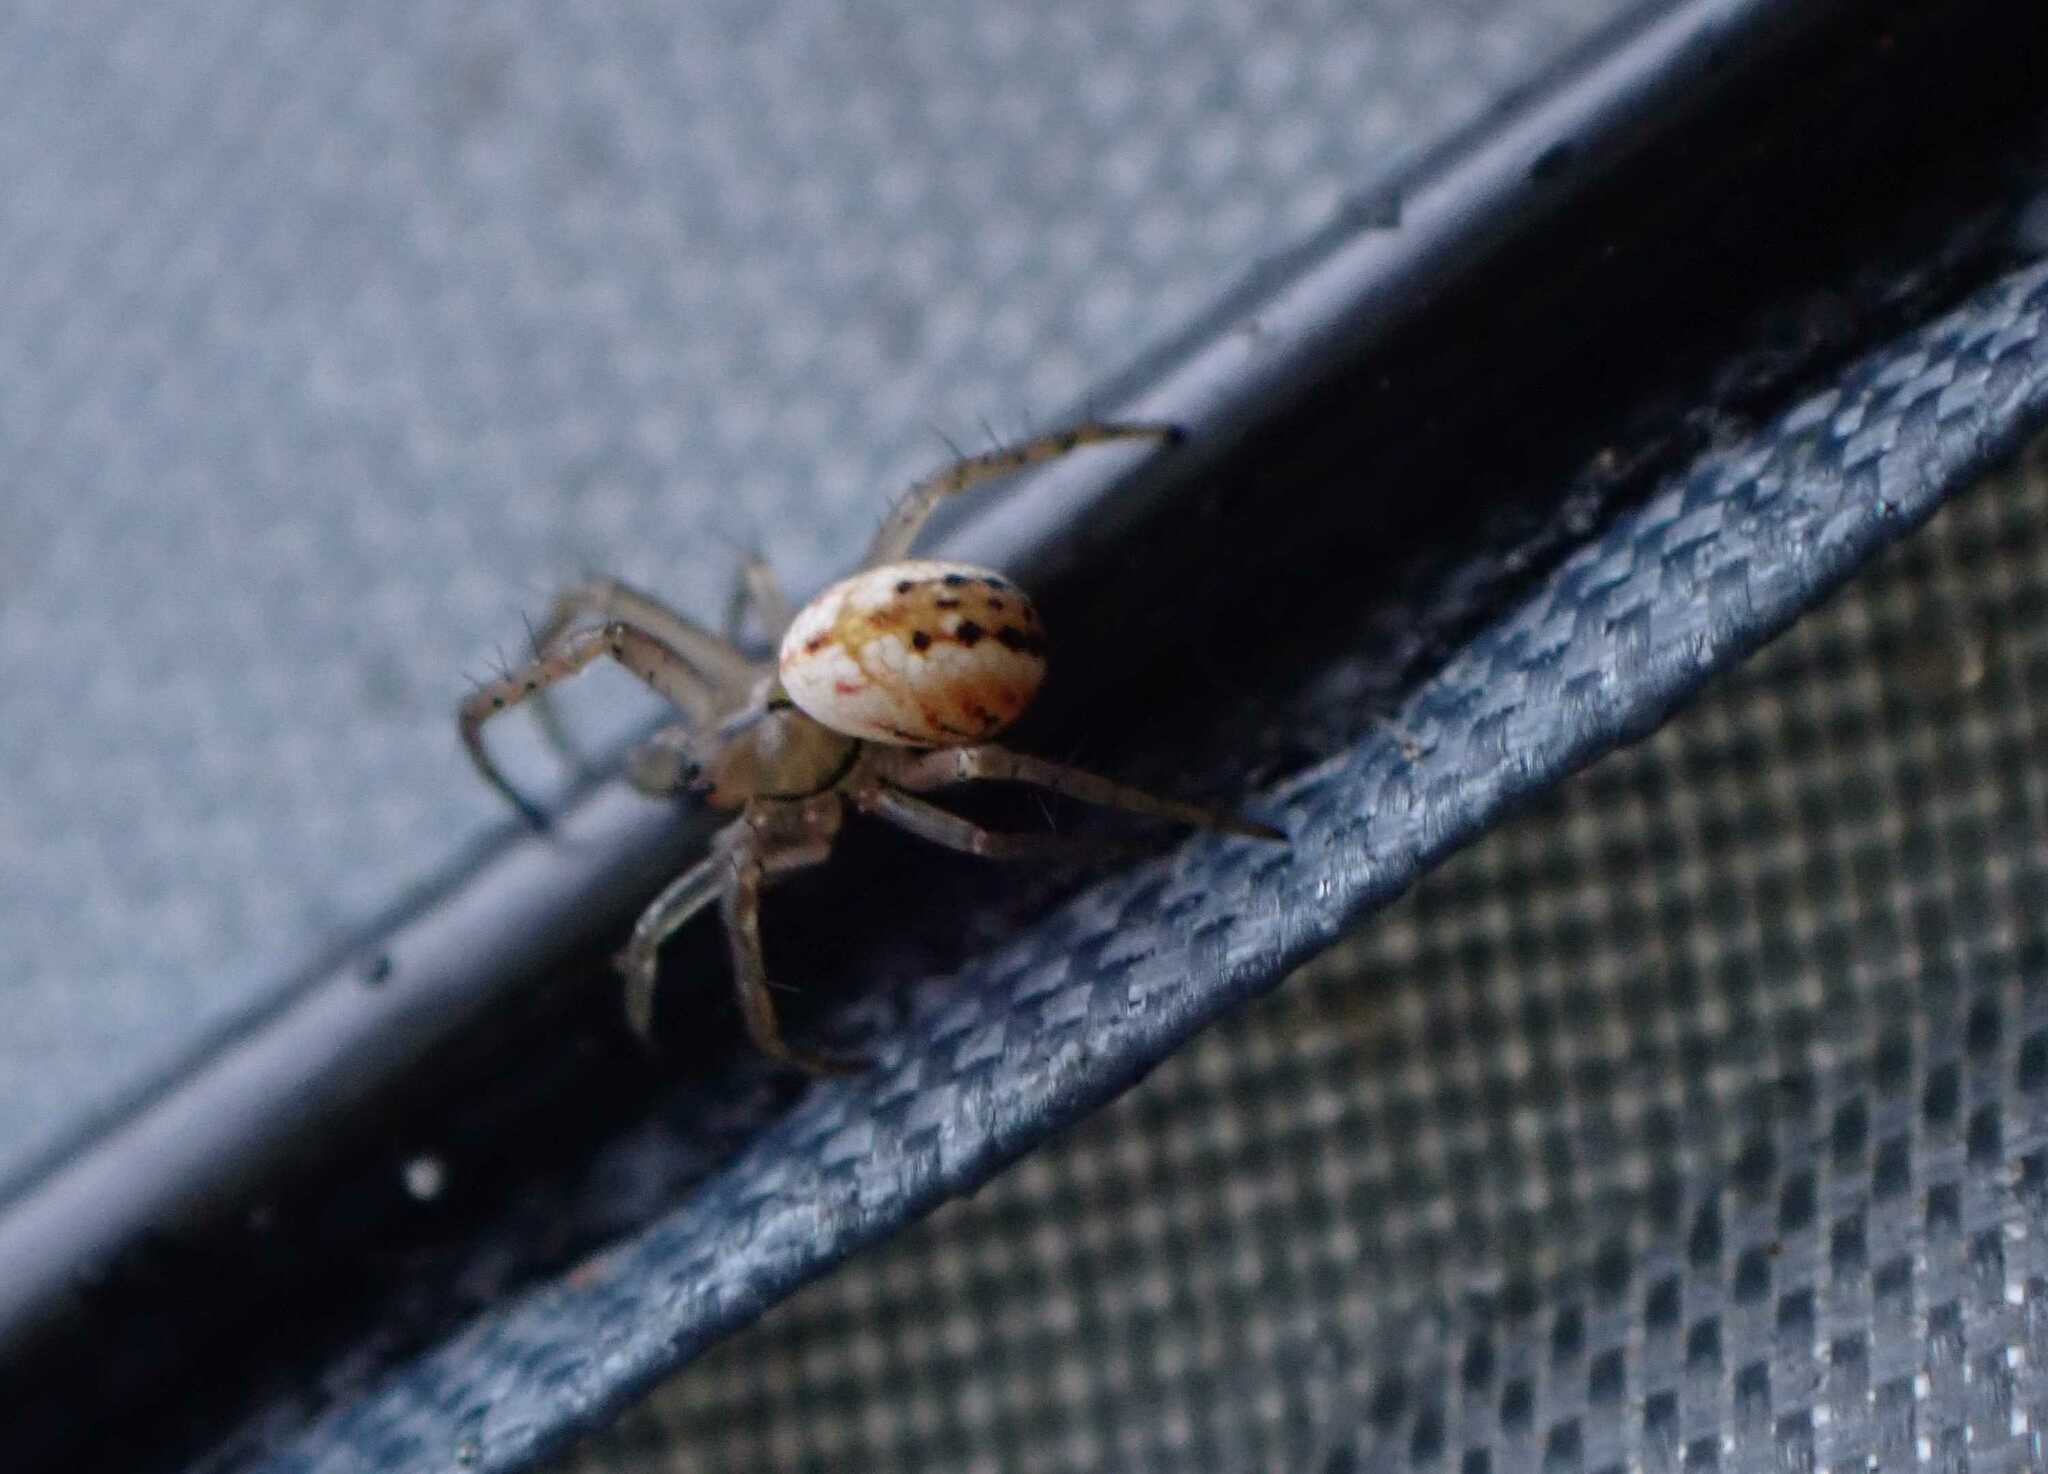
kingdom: Animalia
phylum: Arthropoda
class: Arachnida
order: Araneae
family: Araneidae
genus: Mangora
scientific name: Mangora acalypha
